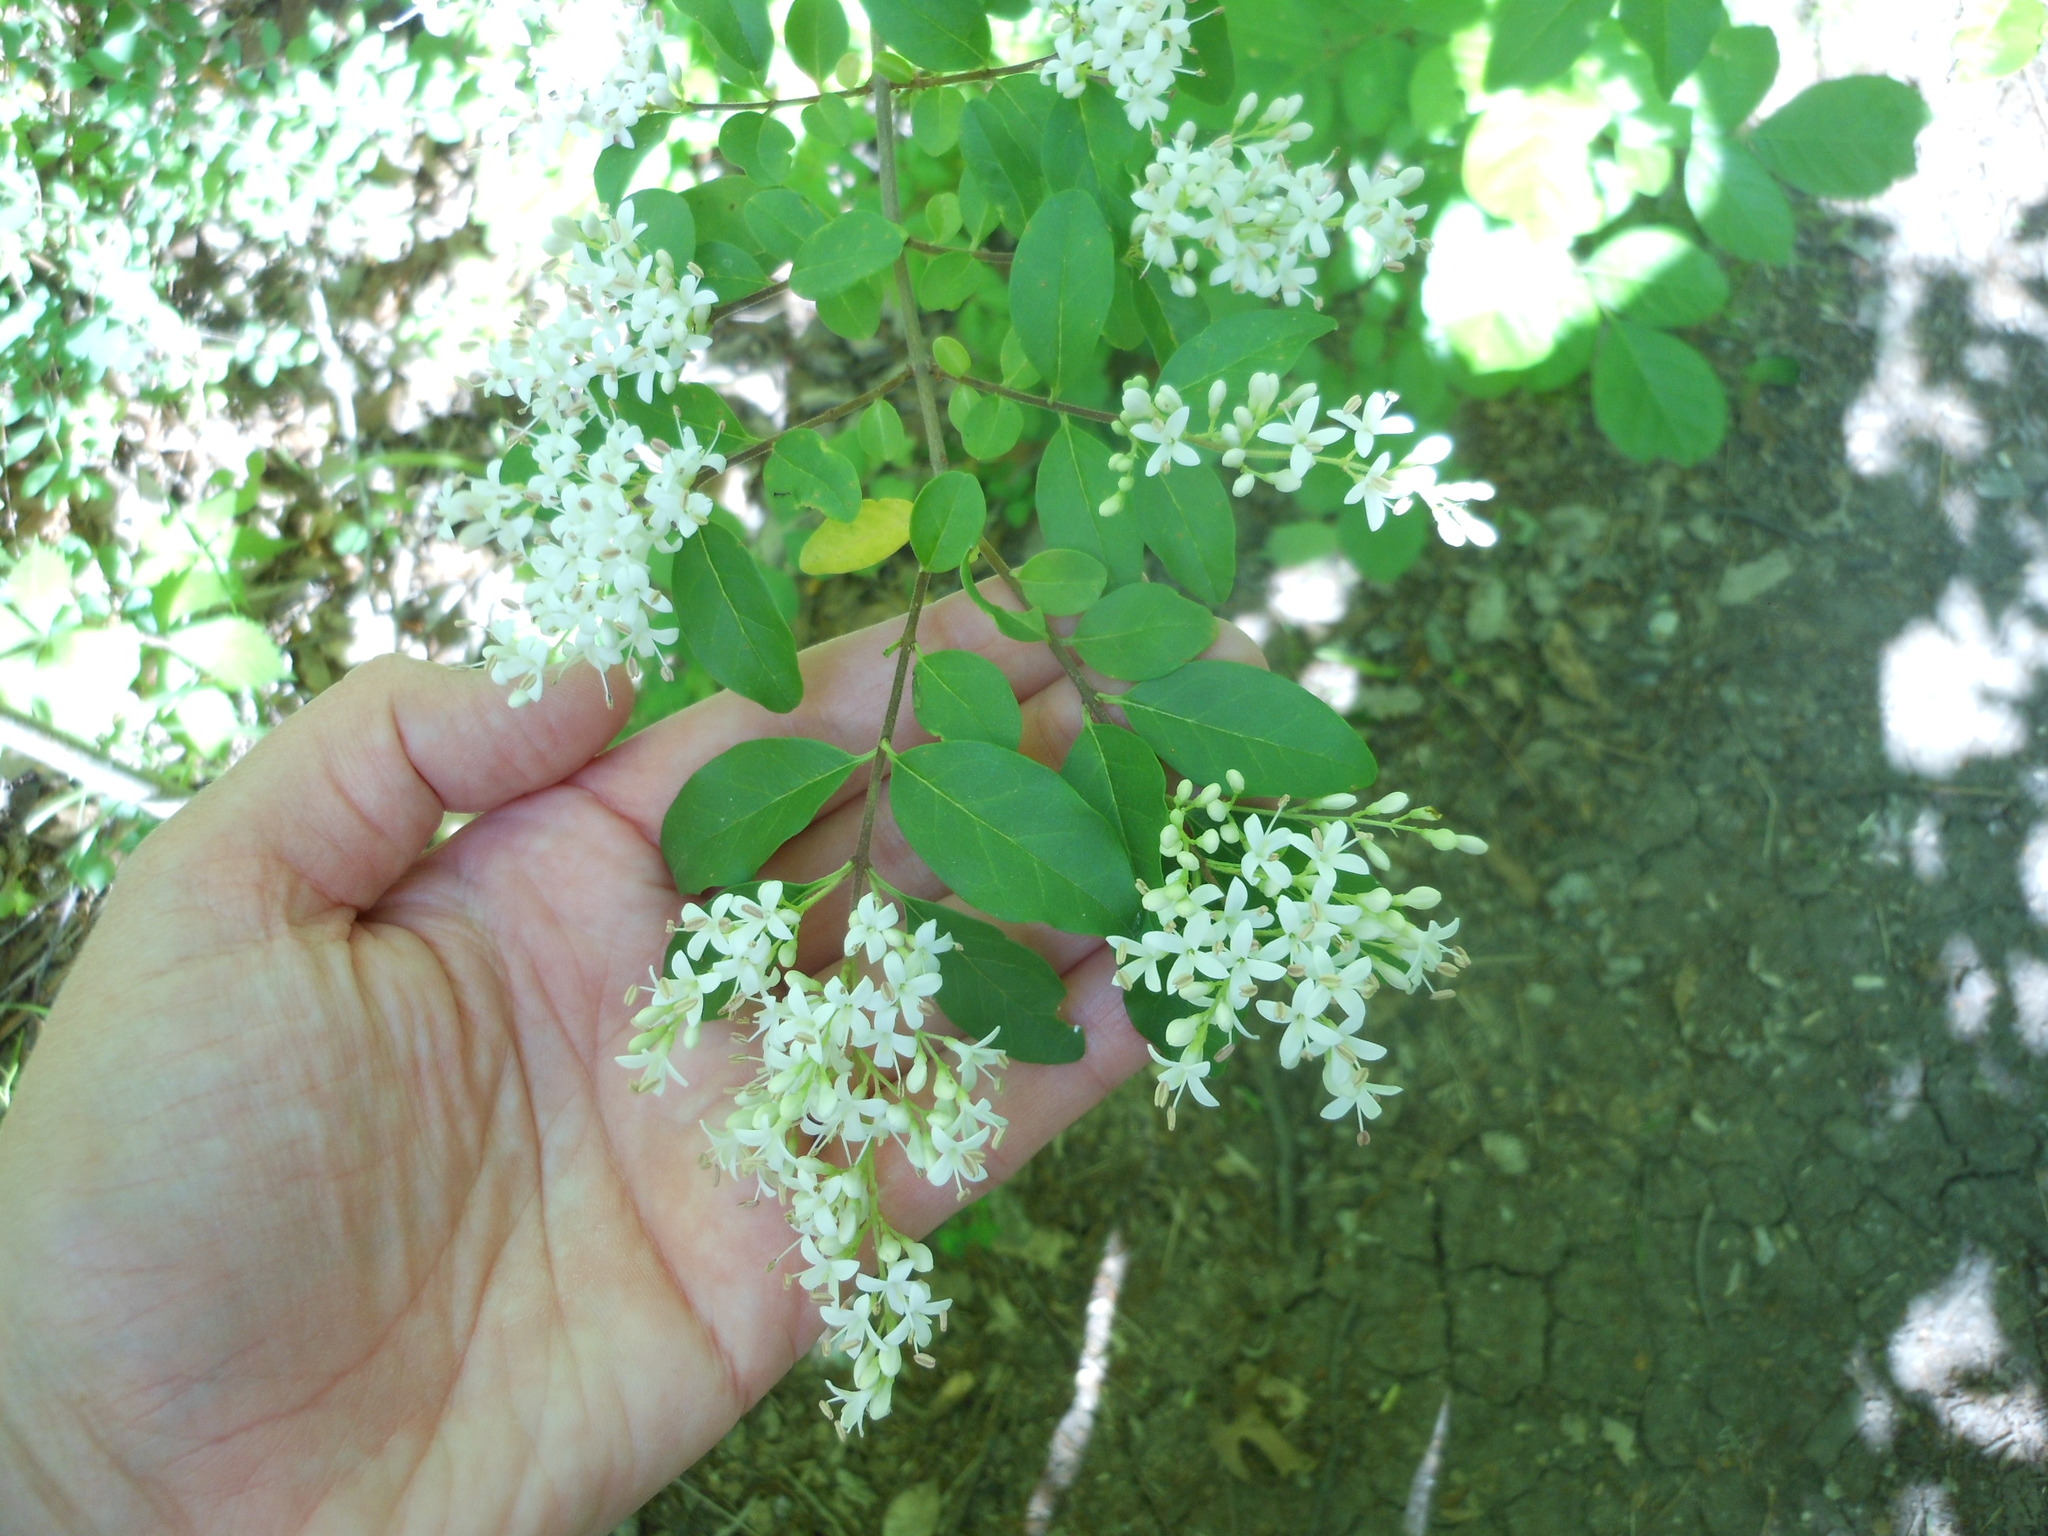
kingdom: Plantae
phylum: Tracheophyta
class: Magnoliopsida
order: Lamiales
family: Oleaceae
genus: Ligustrum
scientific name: Ligustrum sinense
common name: Chinese privet
